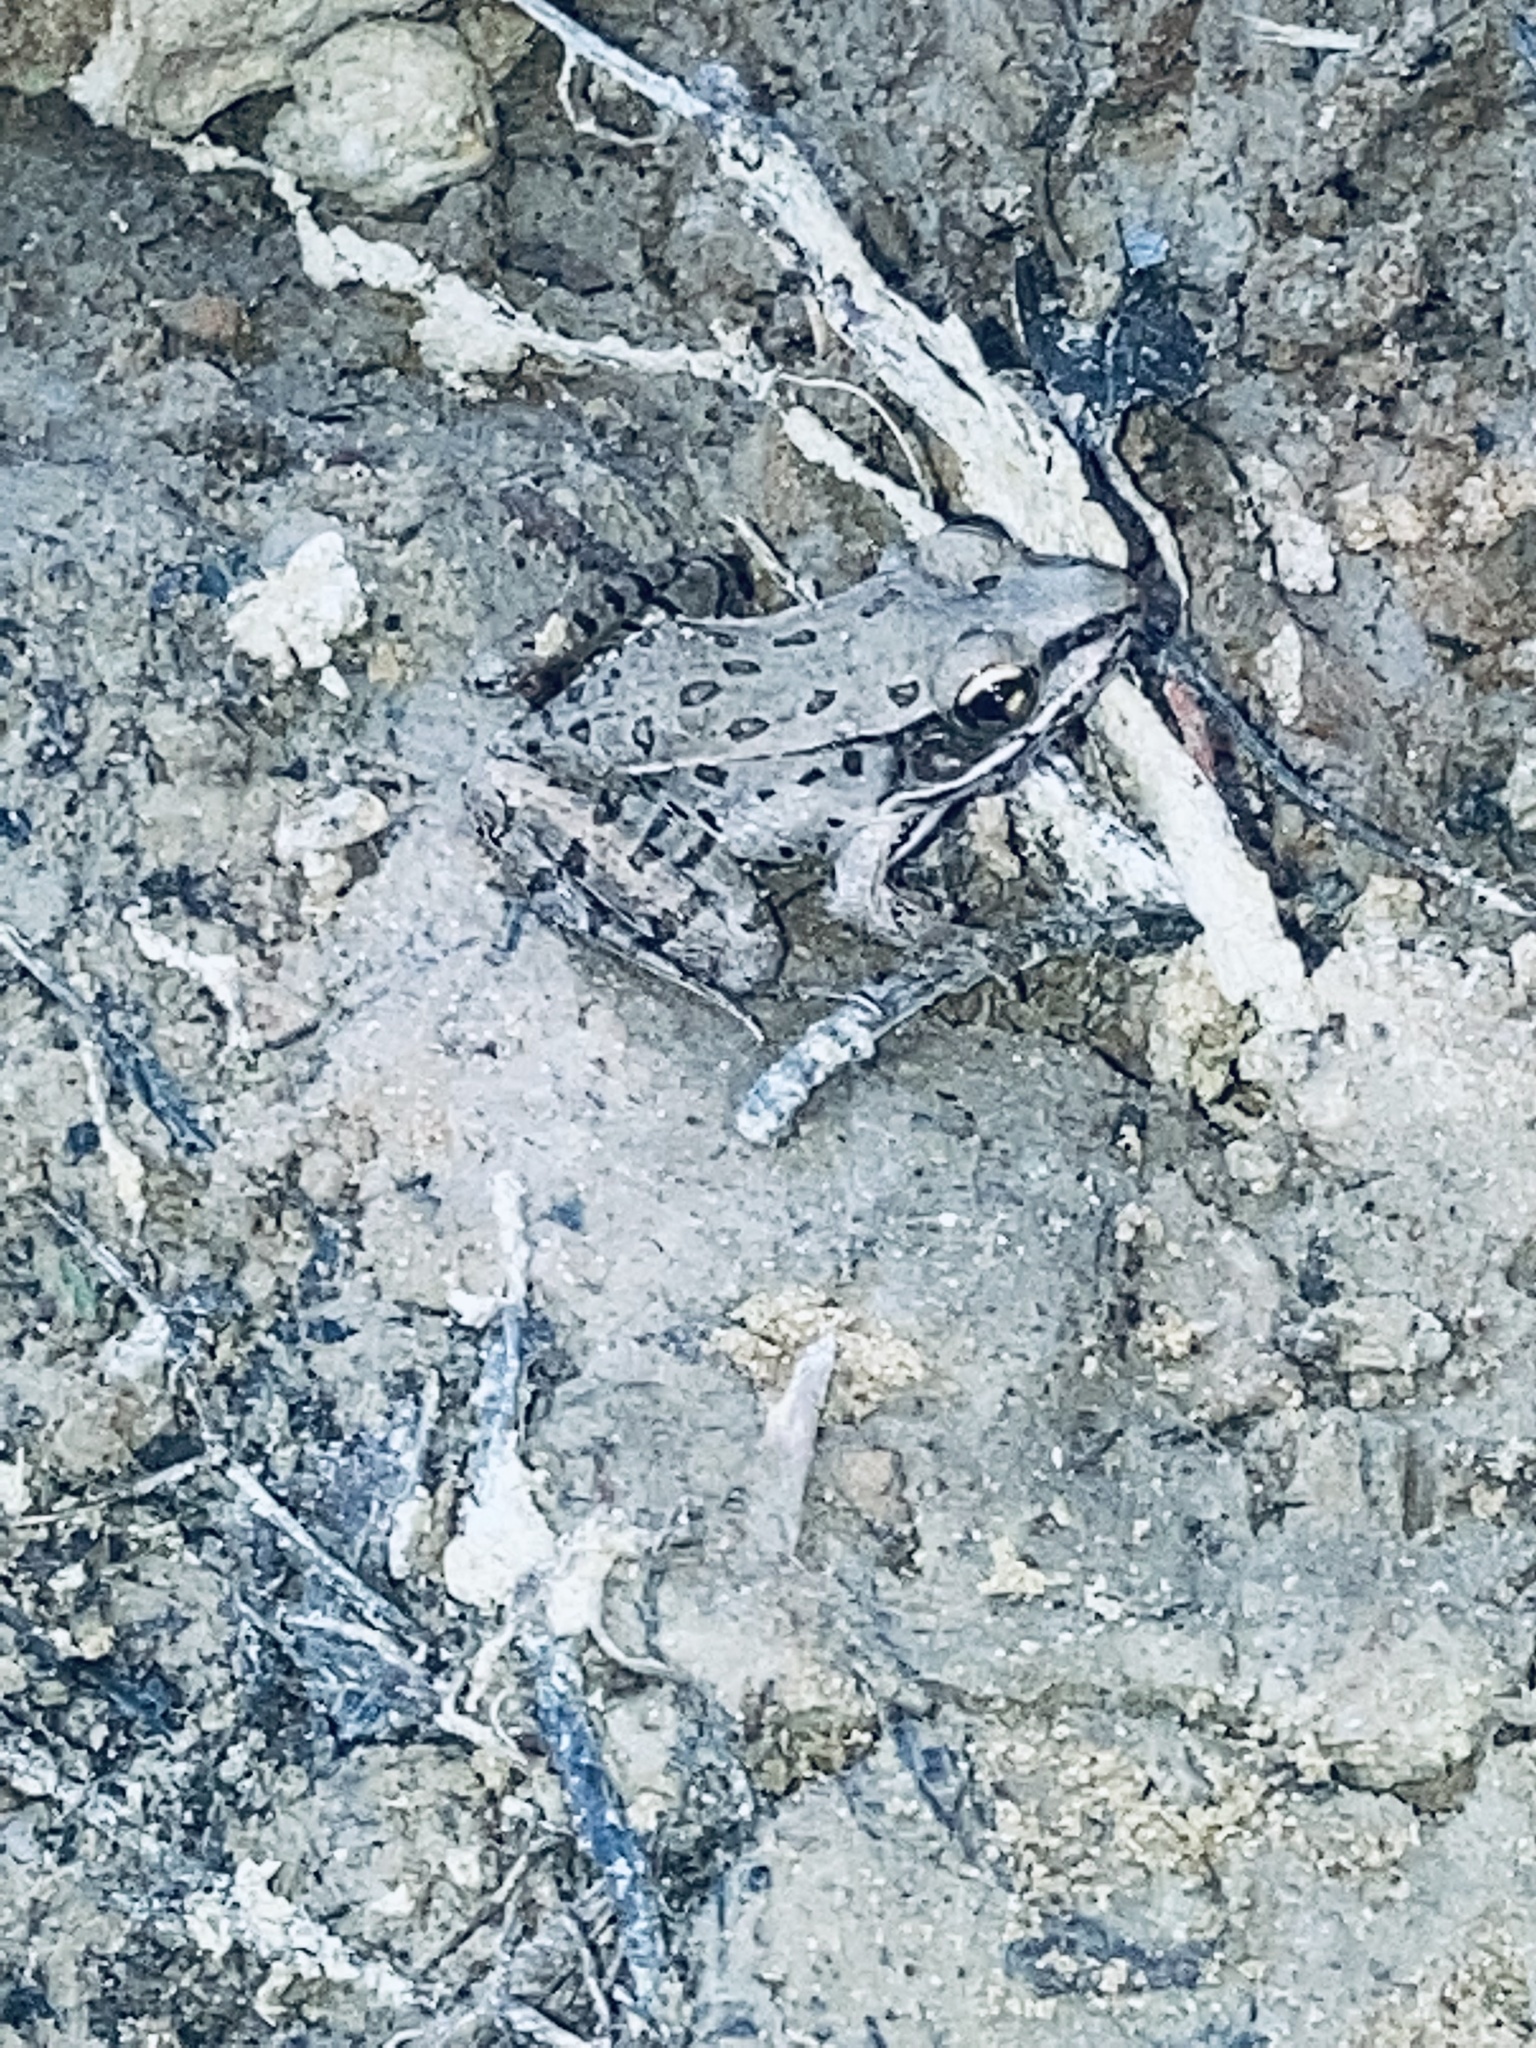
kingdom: Animalia
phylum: Chordata
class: Amphibia
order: Anura
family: Ranidae
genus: Lithobates
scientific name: Lithobates sphenocephalus
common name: Southern leopard frog
